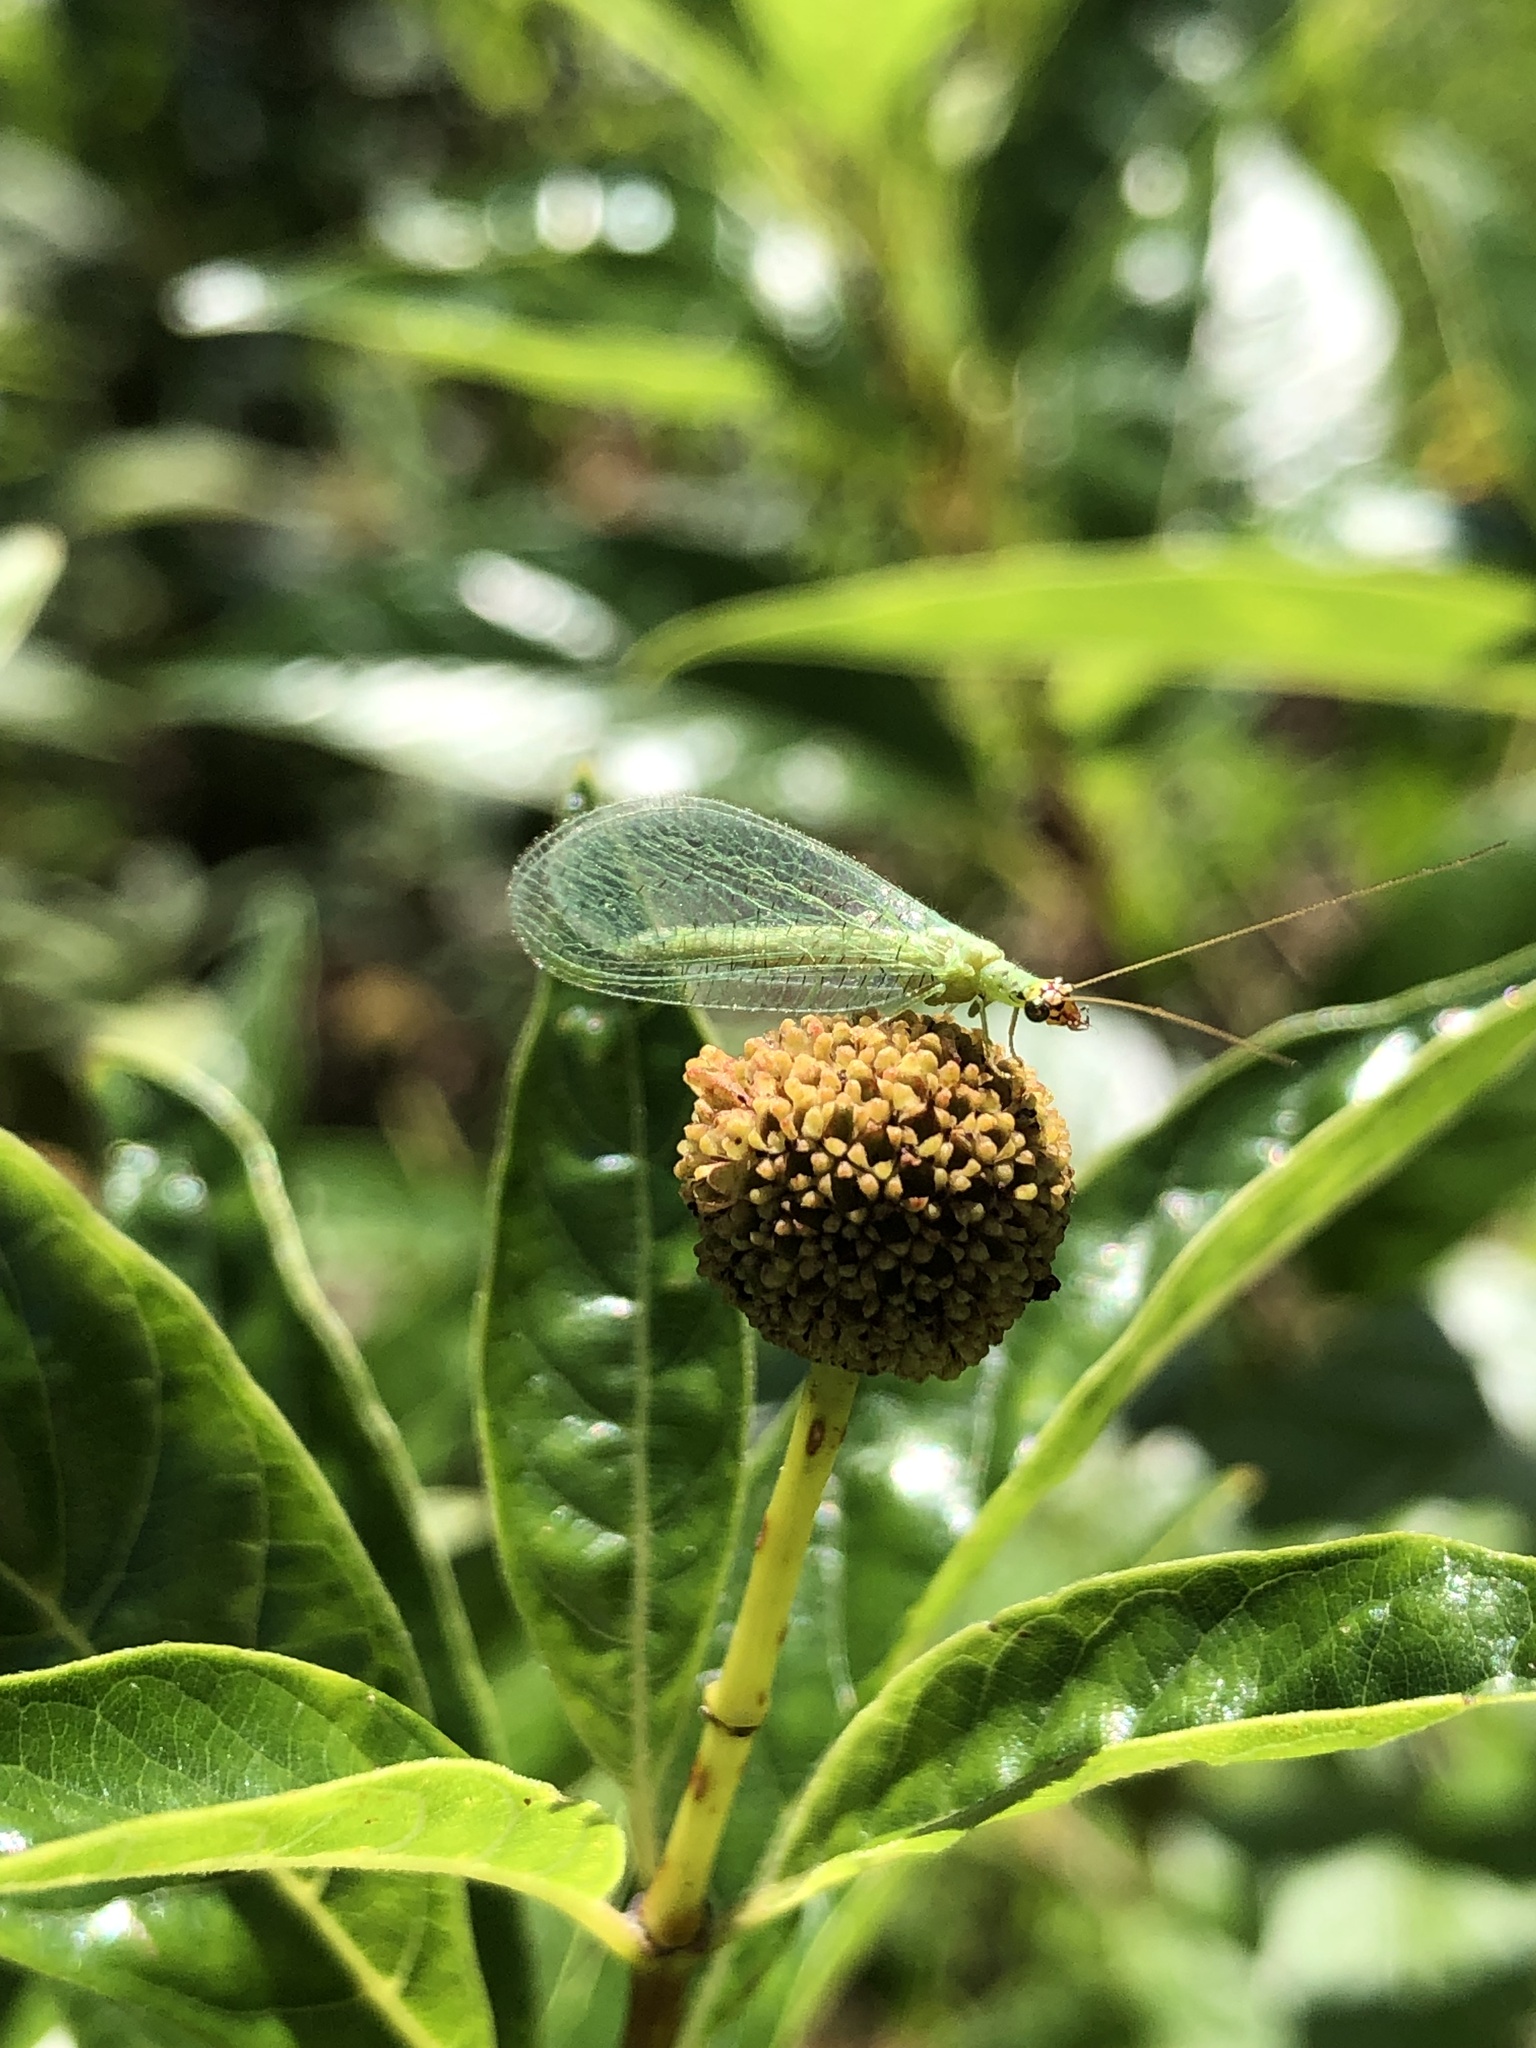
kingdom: Animalia
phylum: Arthropoda
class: Insecta
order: Neuroptera
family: Chrysopidae
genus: Chrysopa
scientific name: Chrysopa oculata
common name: Golden-eyed lacewing
